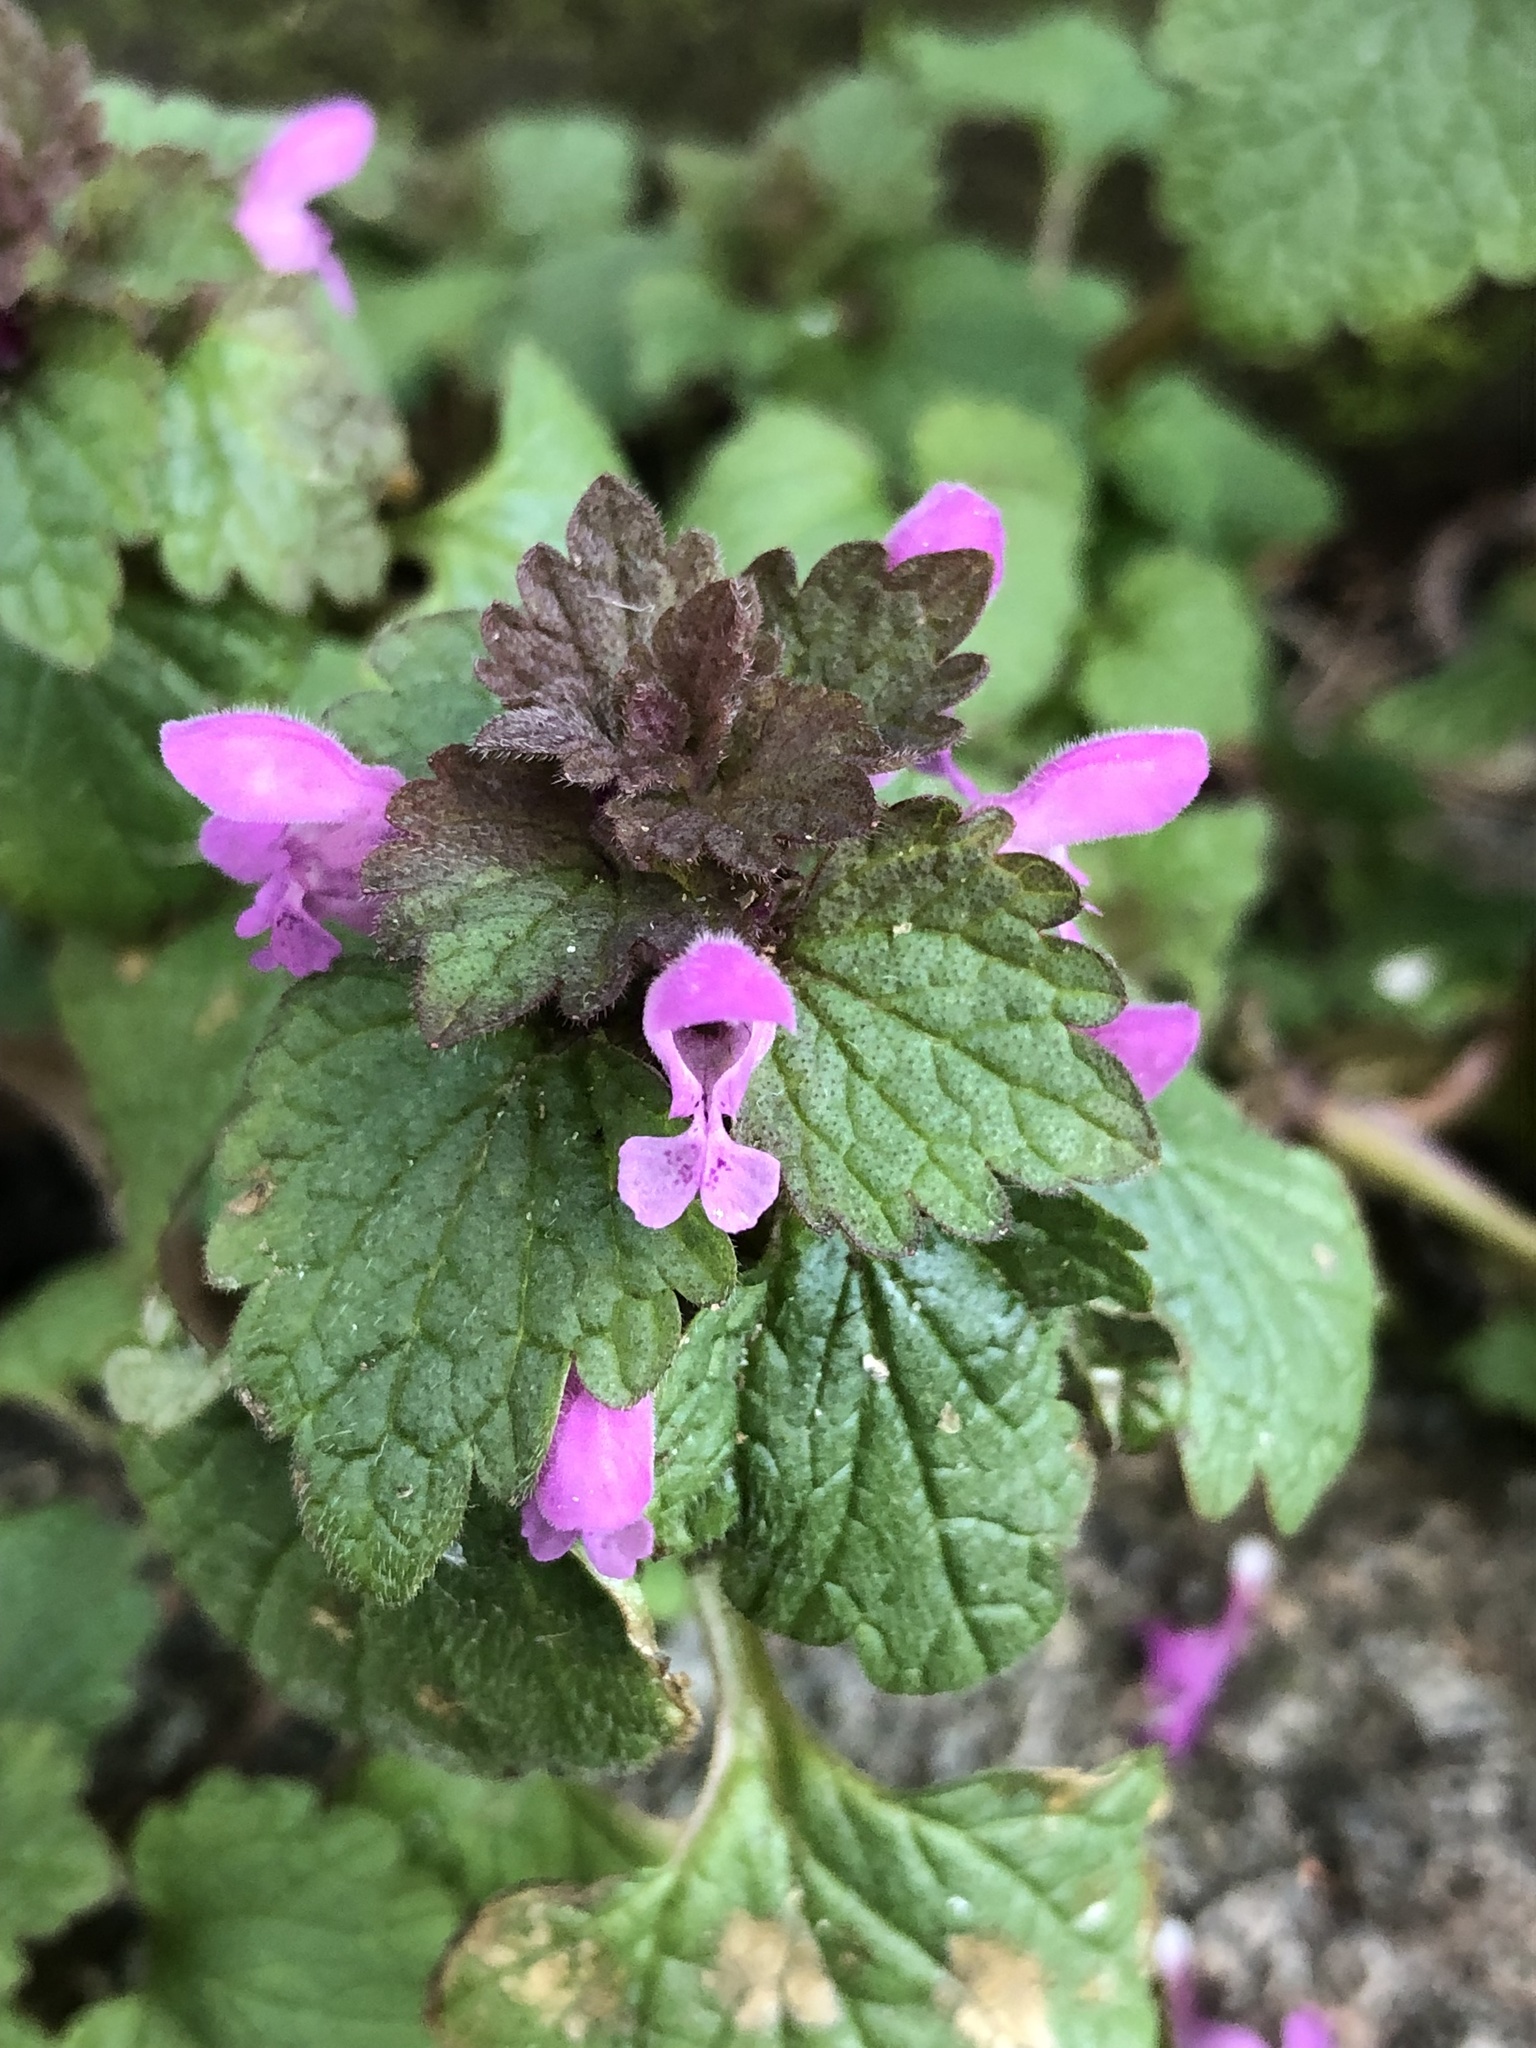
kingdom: Plantae
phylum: Tracheophyta
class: Magnoliopsida
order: Lamiales
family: Lamiaceae
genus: Lamium
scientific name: Lamium purpureum
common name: Red dead-nettle
